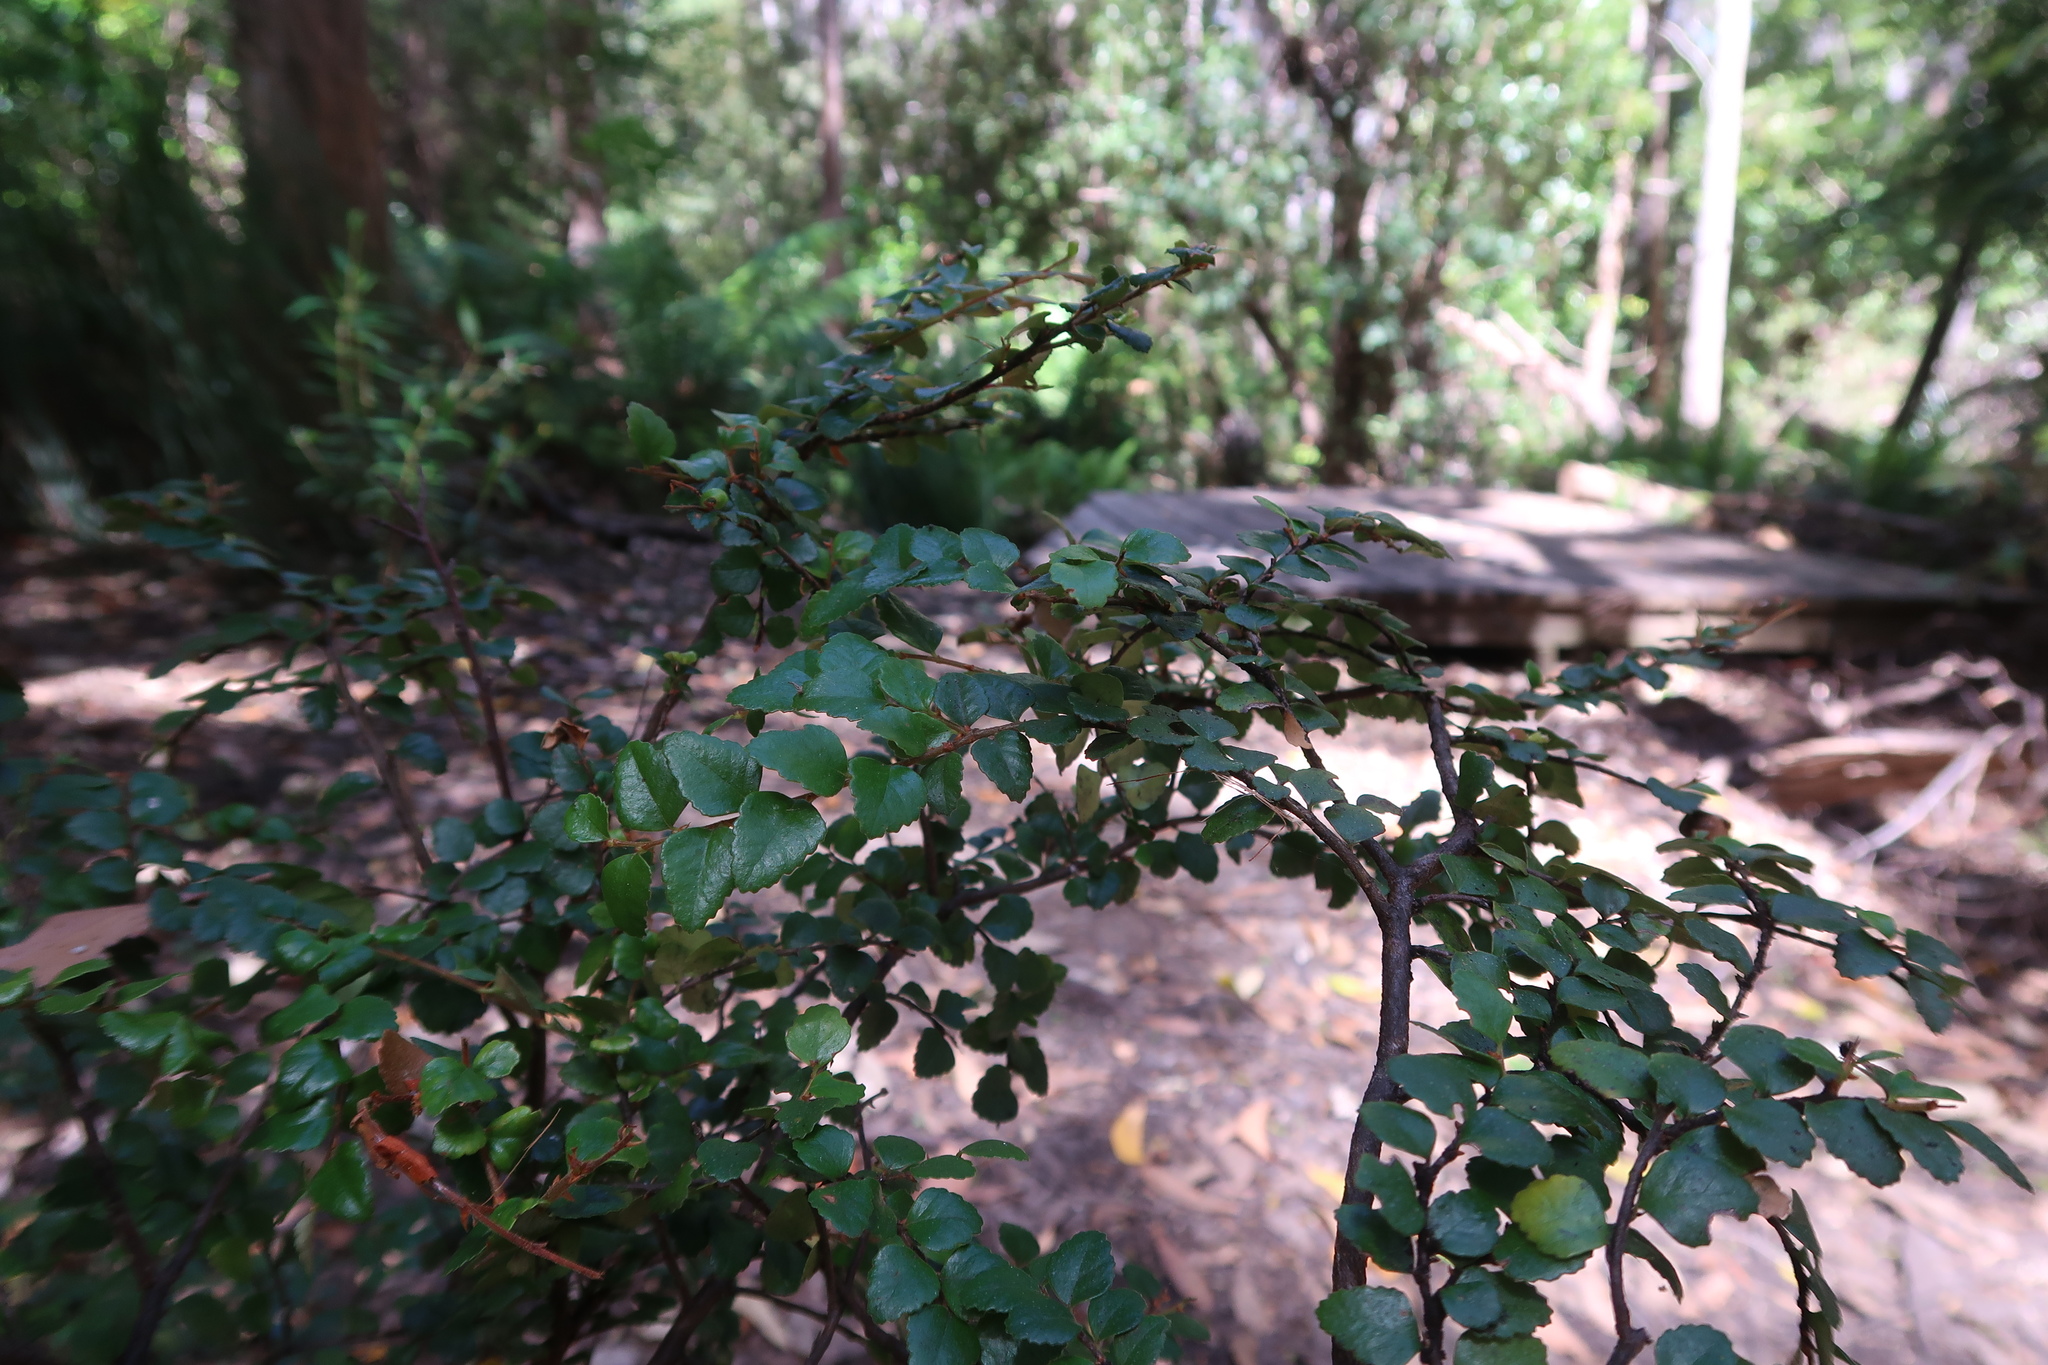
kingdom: Plantae
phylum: Tracheophyta
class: Magnoliopsida
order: Fagales
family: Nothofagaceae
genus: Nothofagus
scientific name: Nothofagus cunninghamii
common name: Myrtle beech
